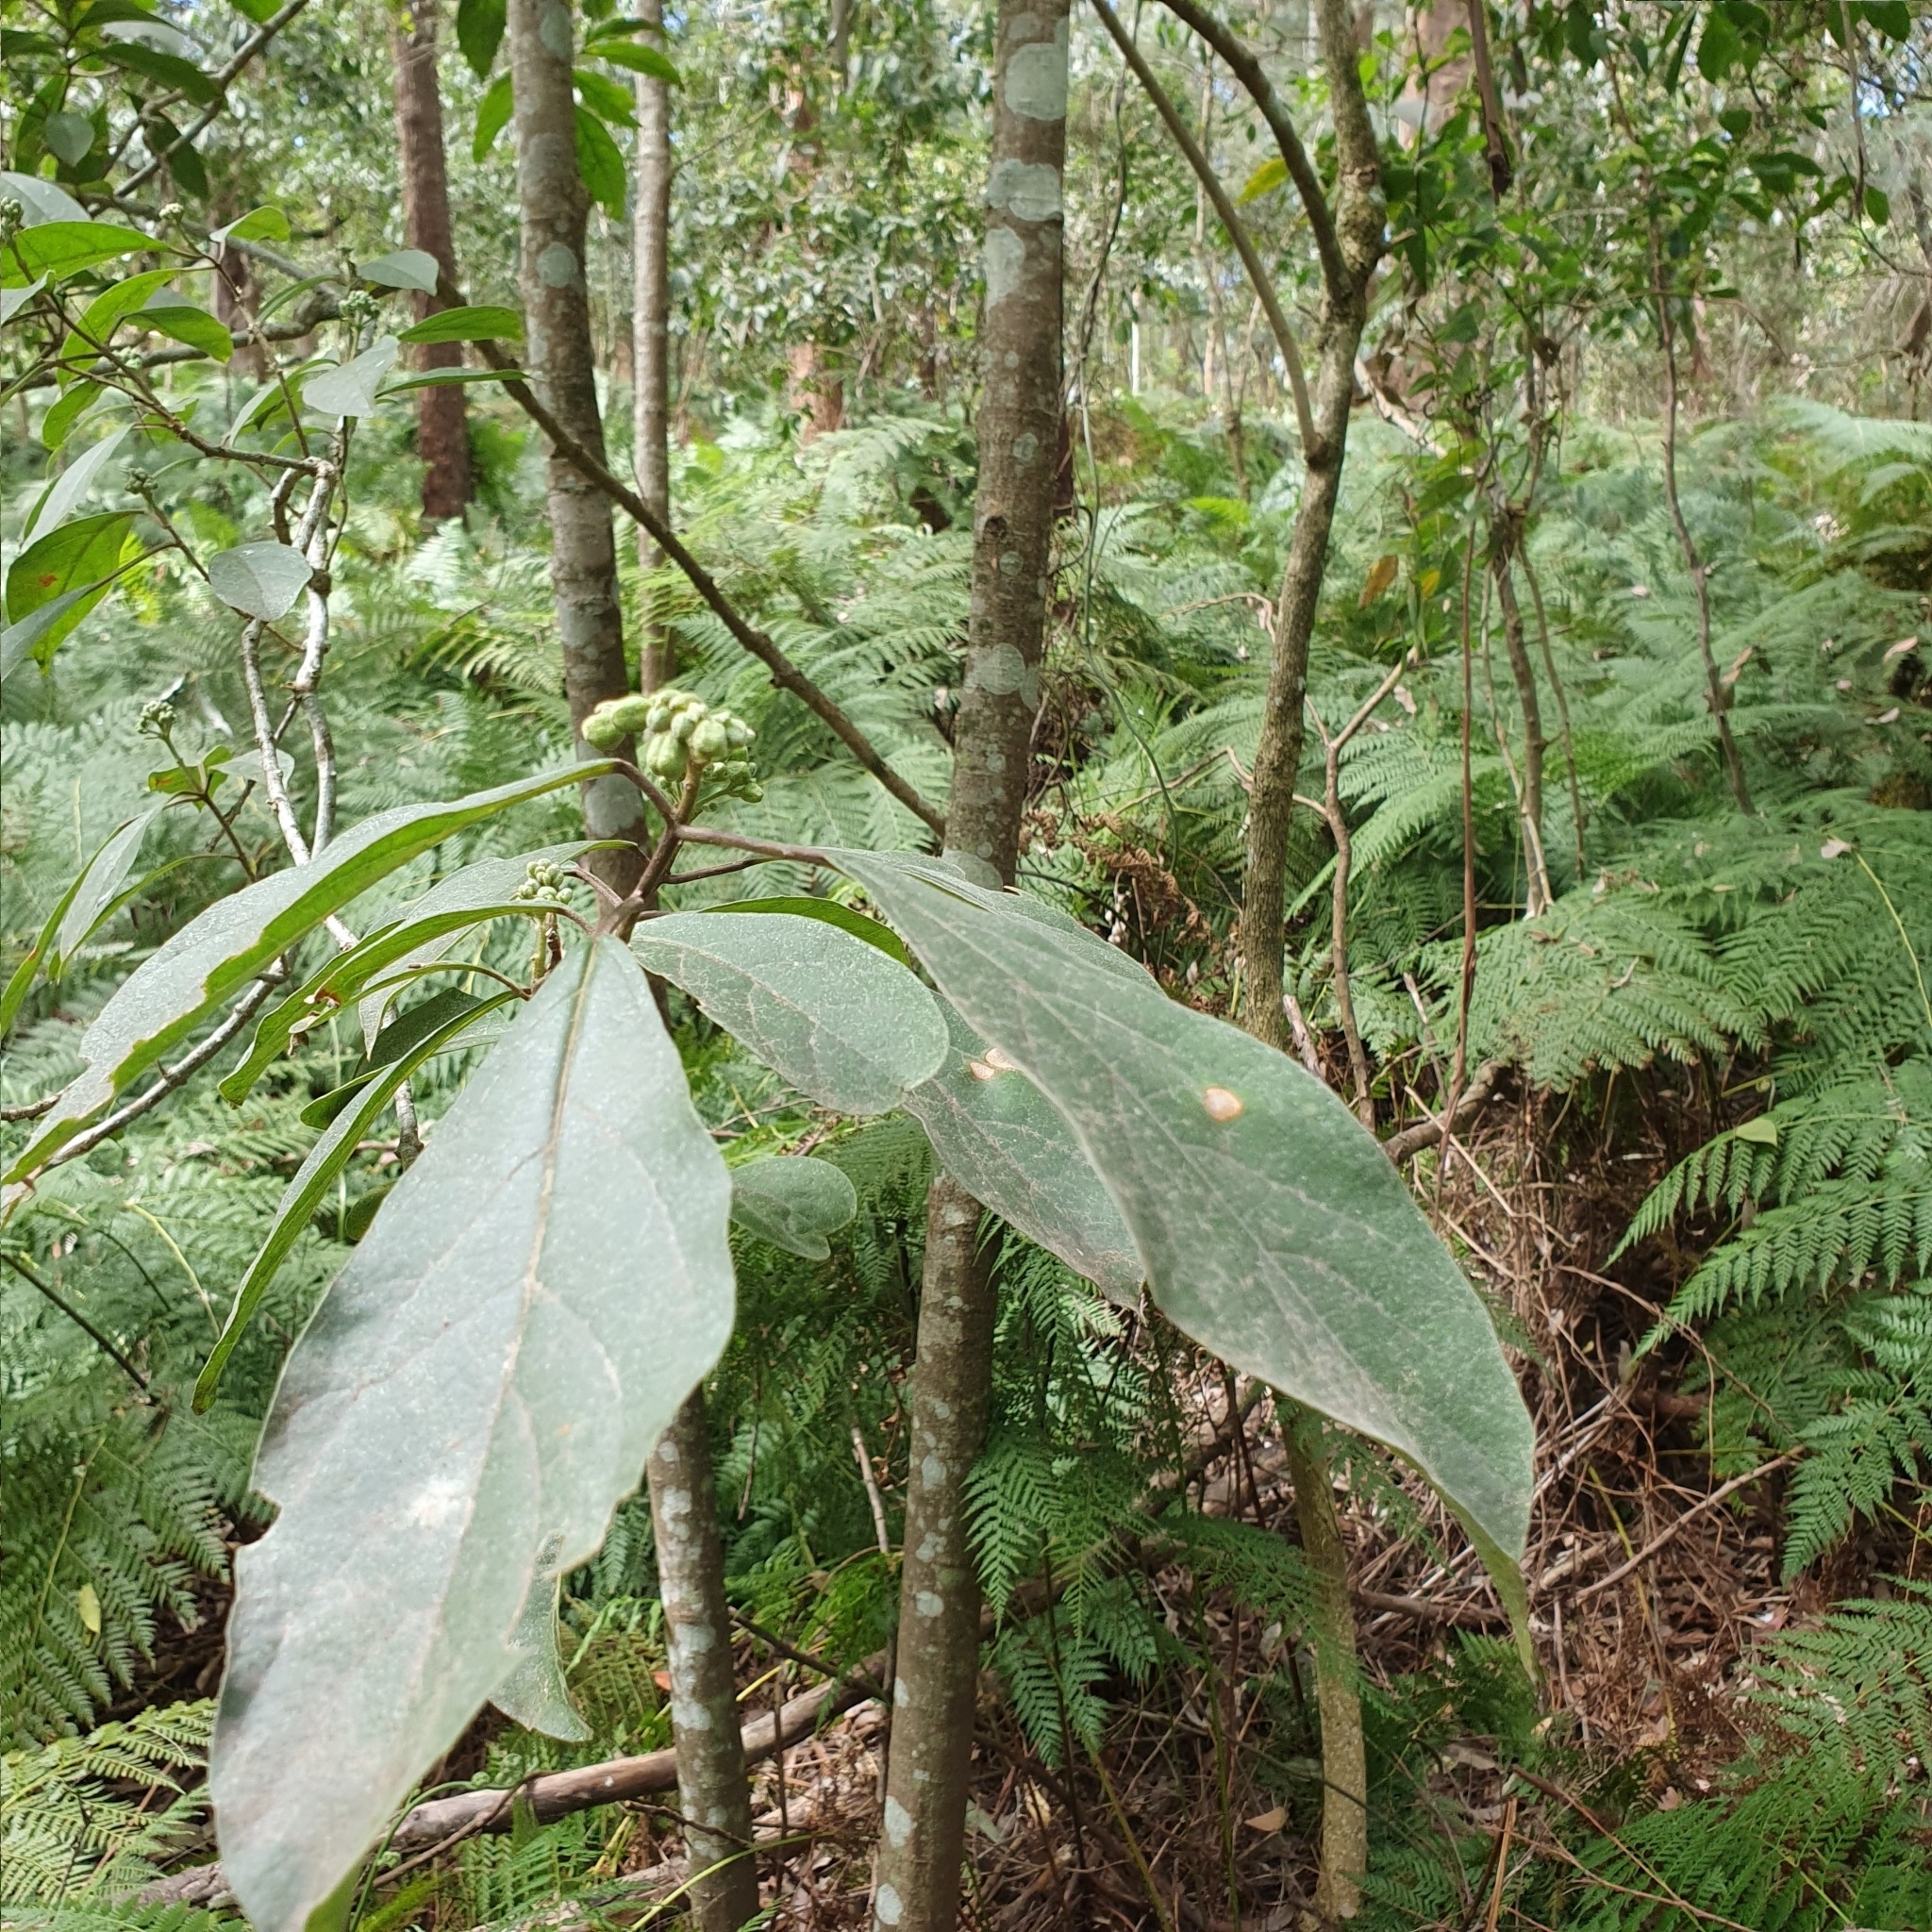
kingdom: Plantae
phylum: Tracheophyta
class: Magnoliopsida
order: Lamiales
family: Lamiaceae
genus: Clerodendrum
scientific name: Clerodendrum tomentosum
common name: Hairy clerodendrum
